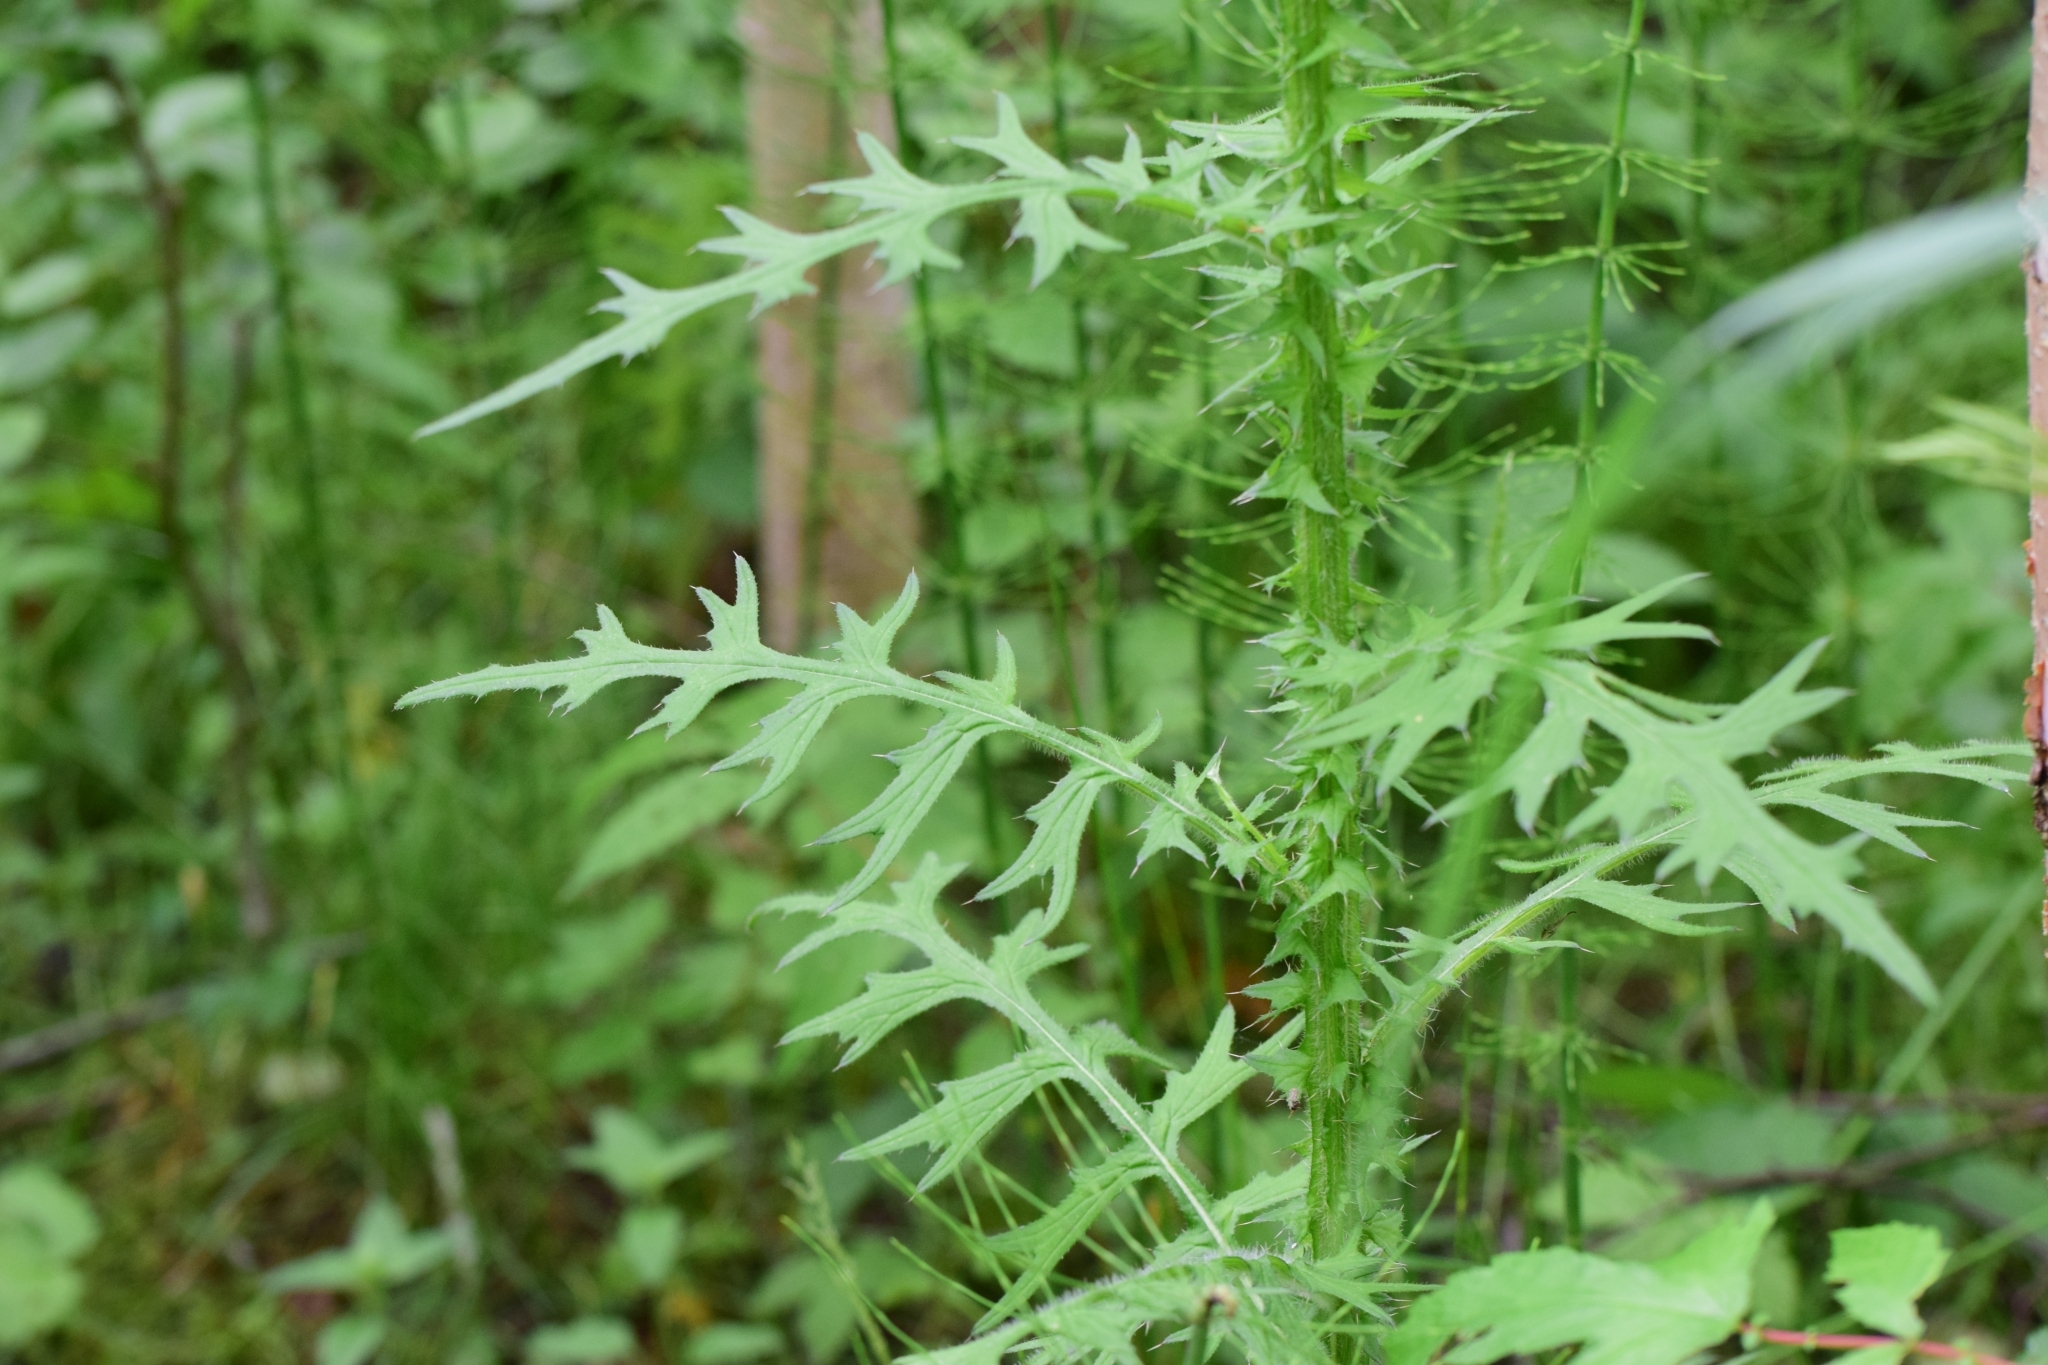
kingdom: Plantae
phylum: Tracheophyta
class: Magnoliopsida
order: Asterales
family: Asteraceae
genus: Cirsium
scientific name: Cirsium palustre
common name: Marsh thistle
